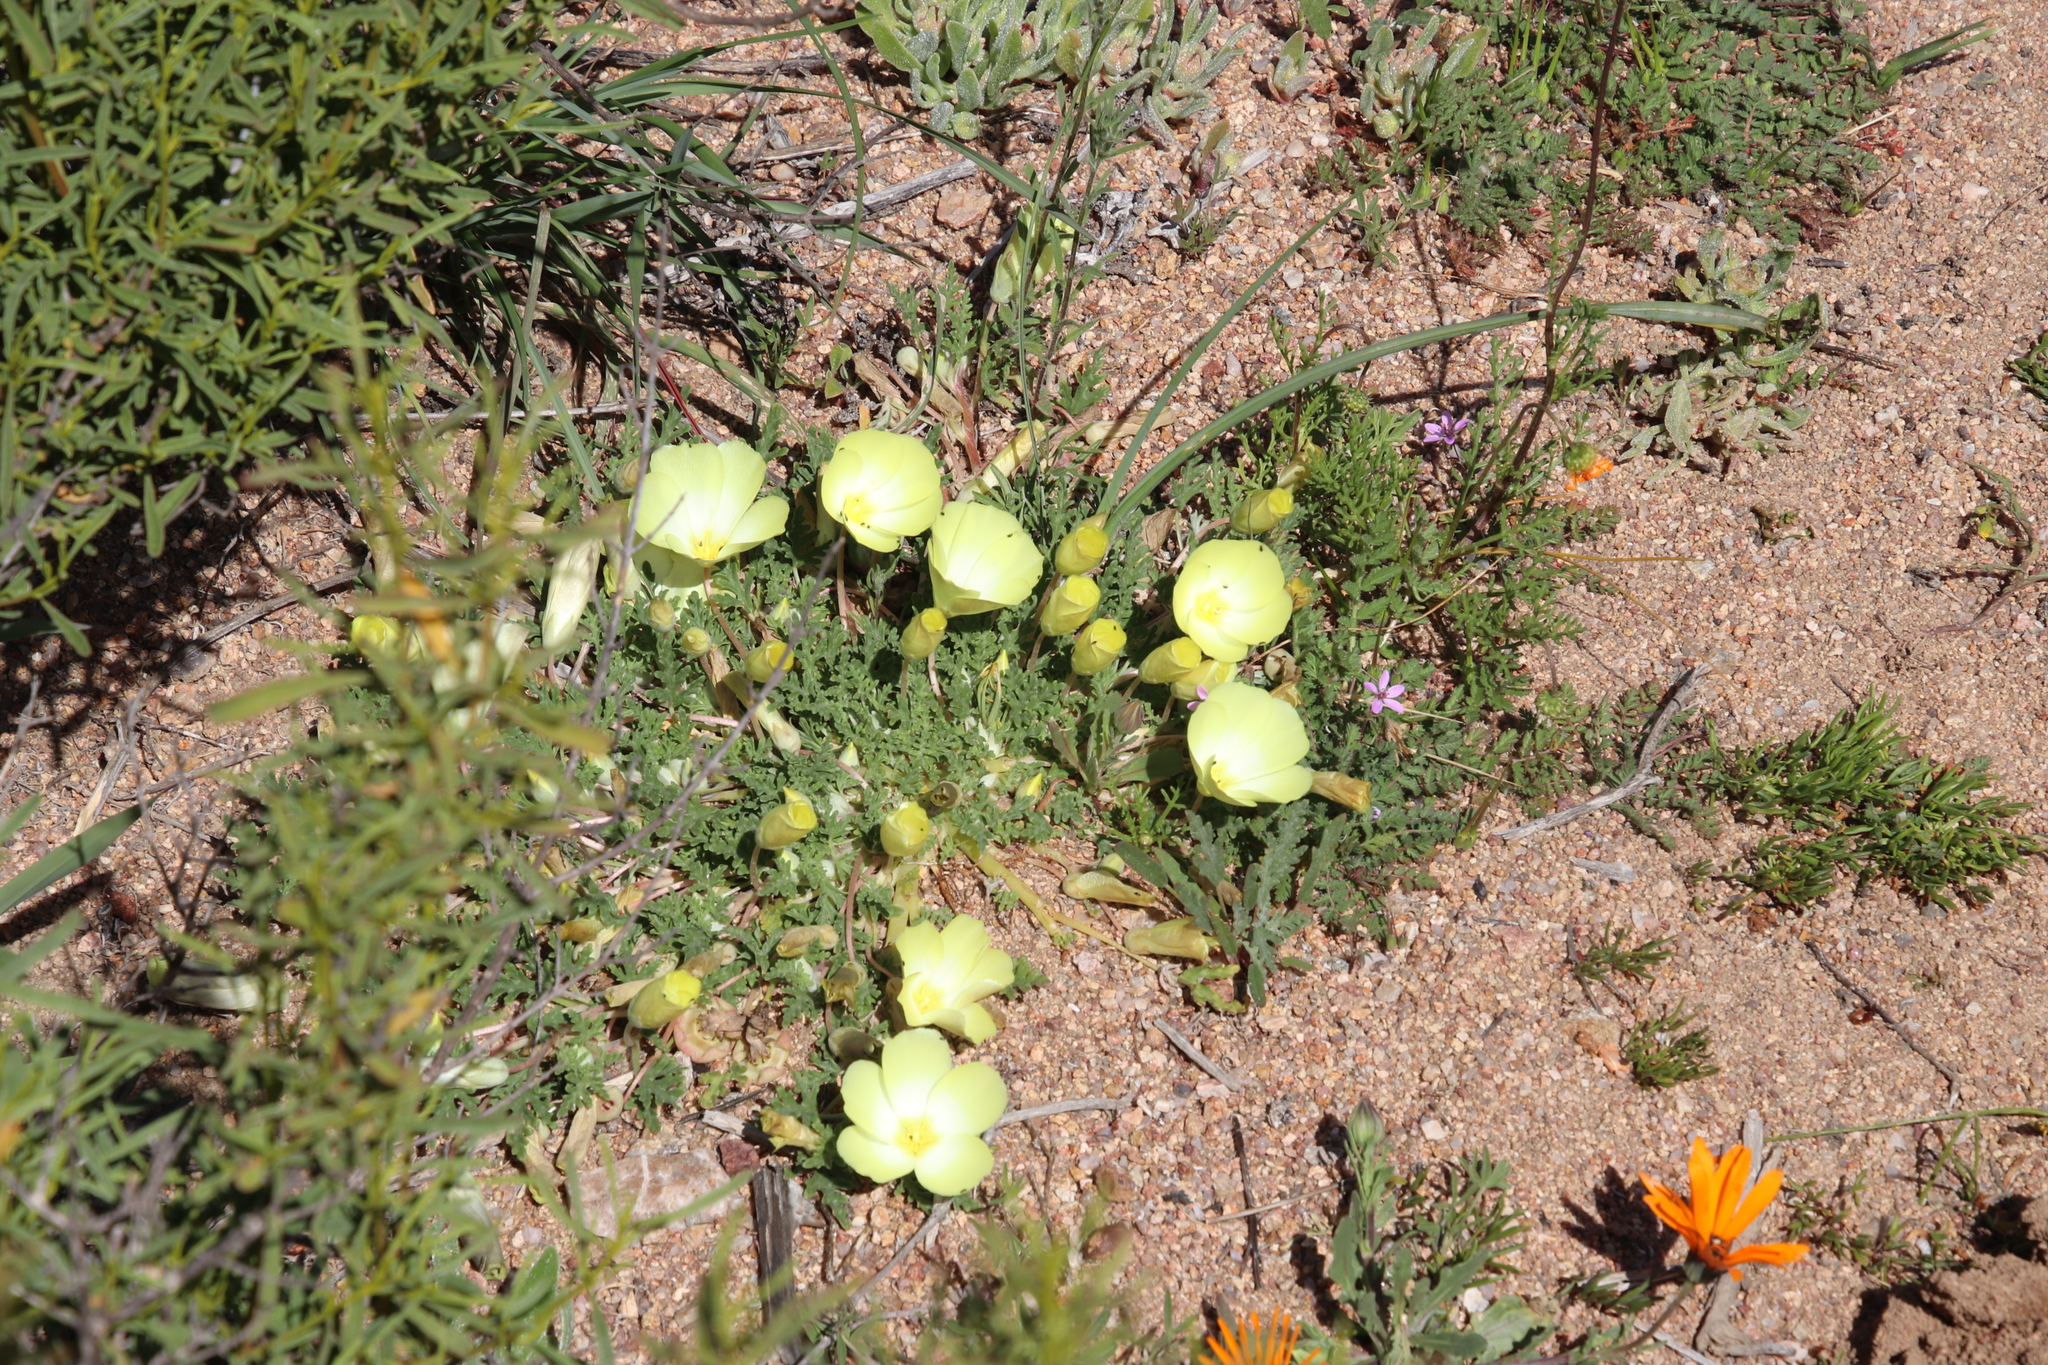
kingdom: Plantae
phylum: Tracheophyta
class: Magnoliopsida
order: Malvales
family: Neuradaceae
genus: Grielum
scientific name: Grielum humifusum
